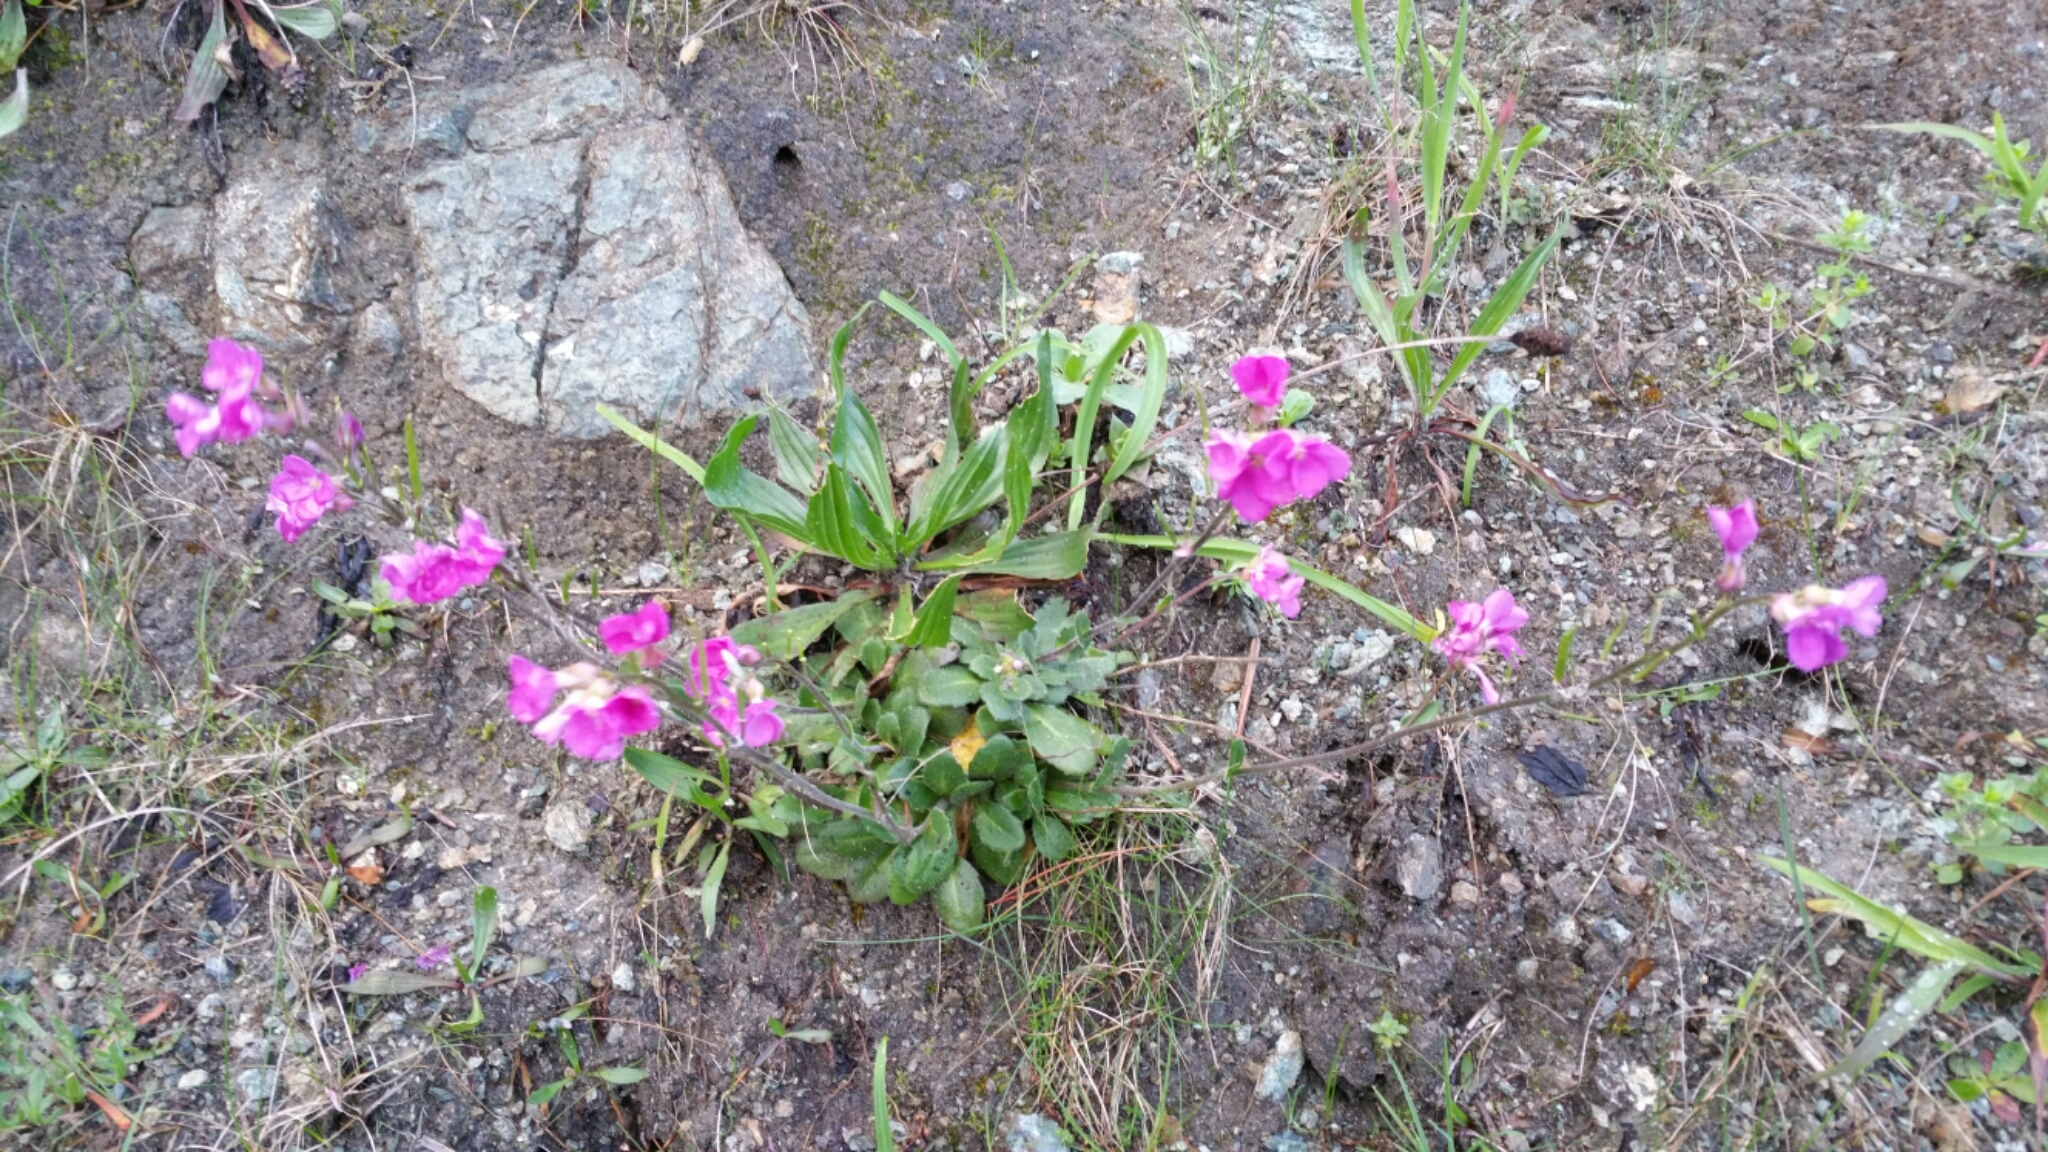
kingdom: Plantae
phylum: Tracheophyta
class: Magnoliopsida
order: Brassicales
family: Brassicaceae
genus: Arabis
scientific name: Arabis blepharophylla
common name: Rose rockcress
